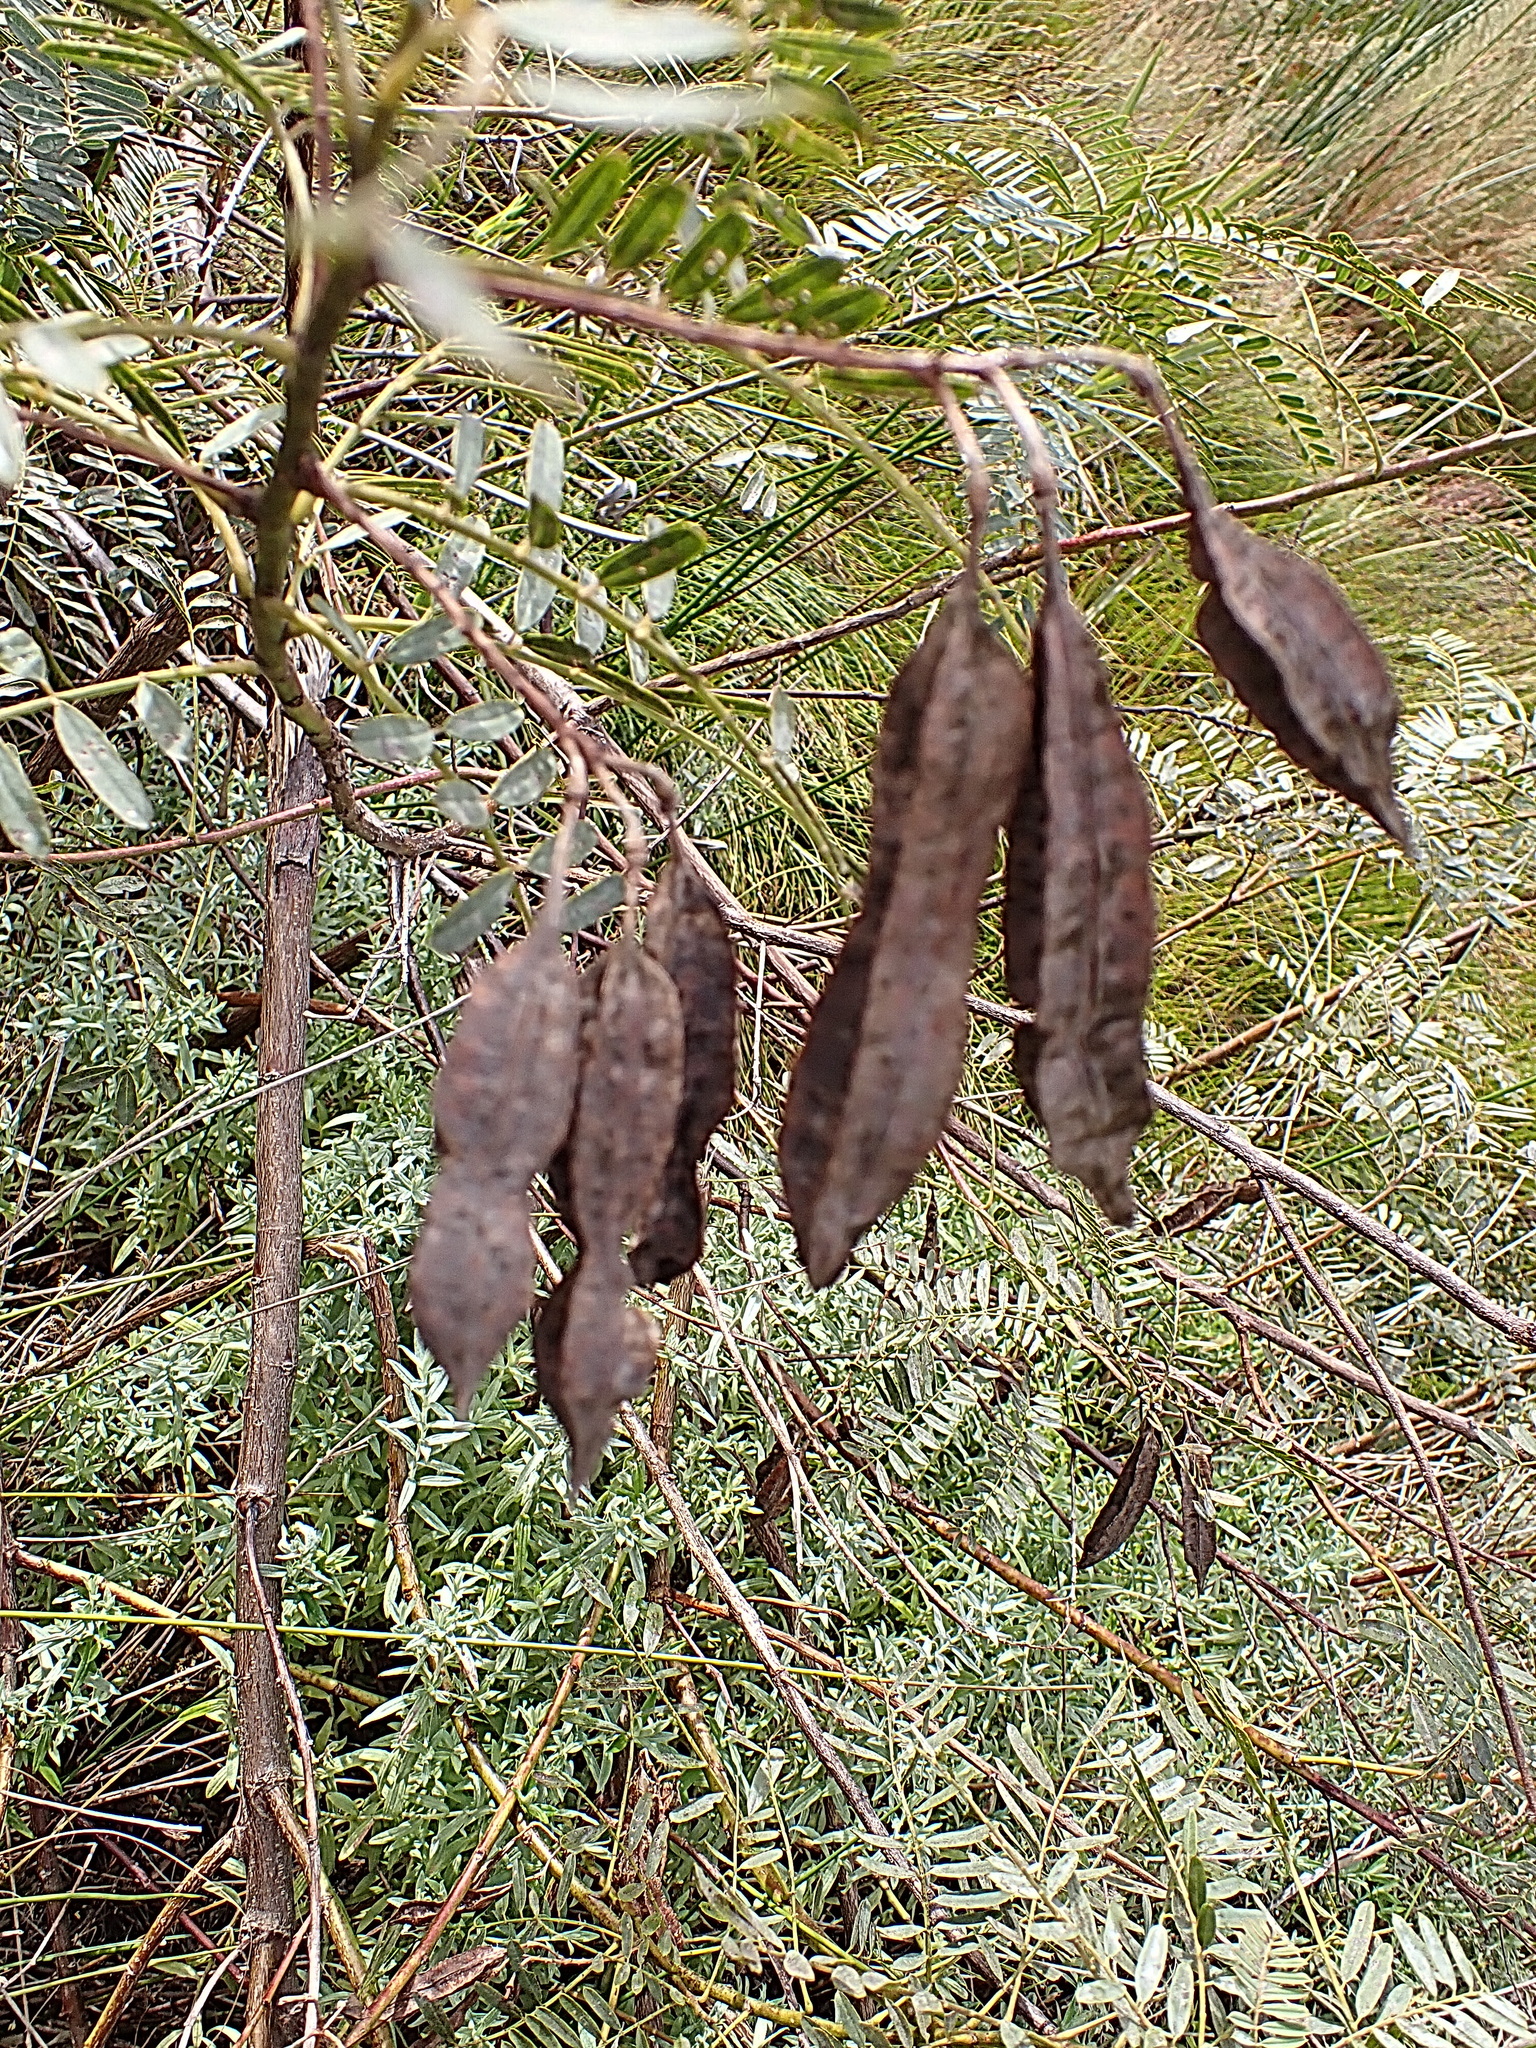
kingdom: Plantae
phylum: Tracheophyta
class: Magnoliopsida
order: Fabales
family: Fabaceae
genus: Sesbania
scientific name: Sesbania punicea
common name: Rattlebox
